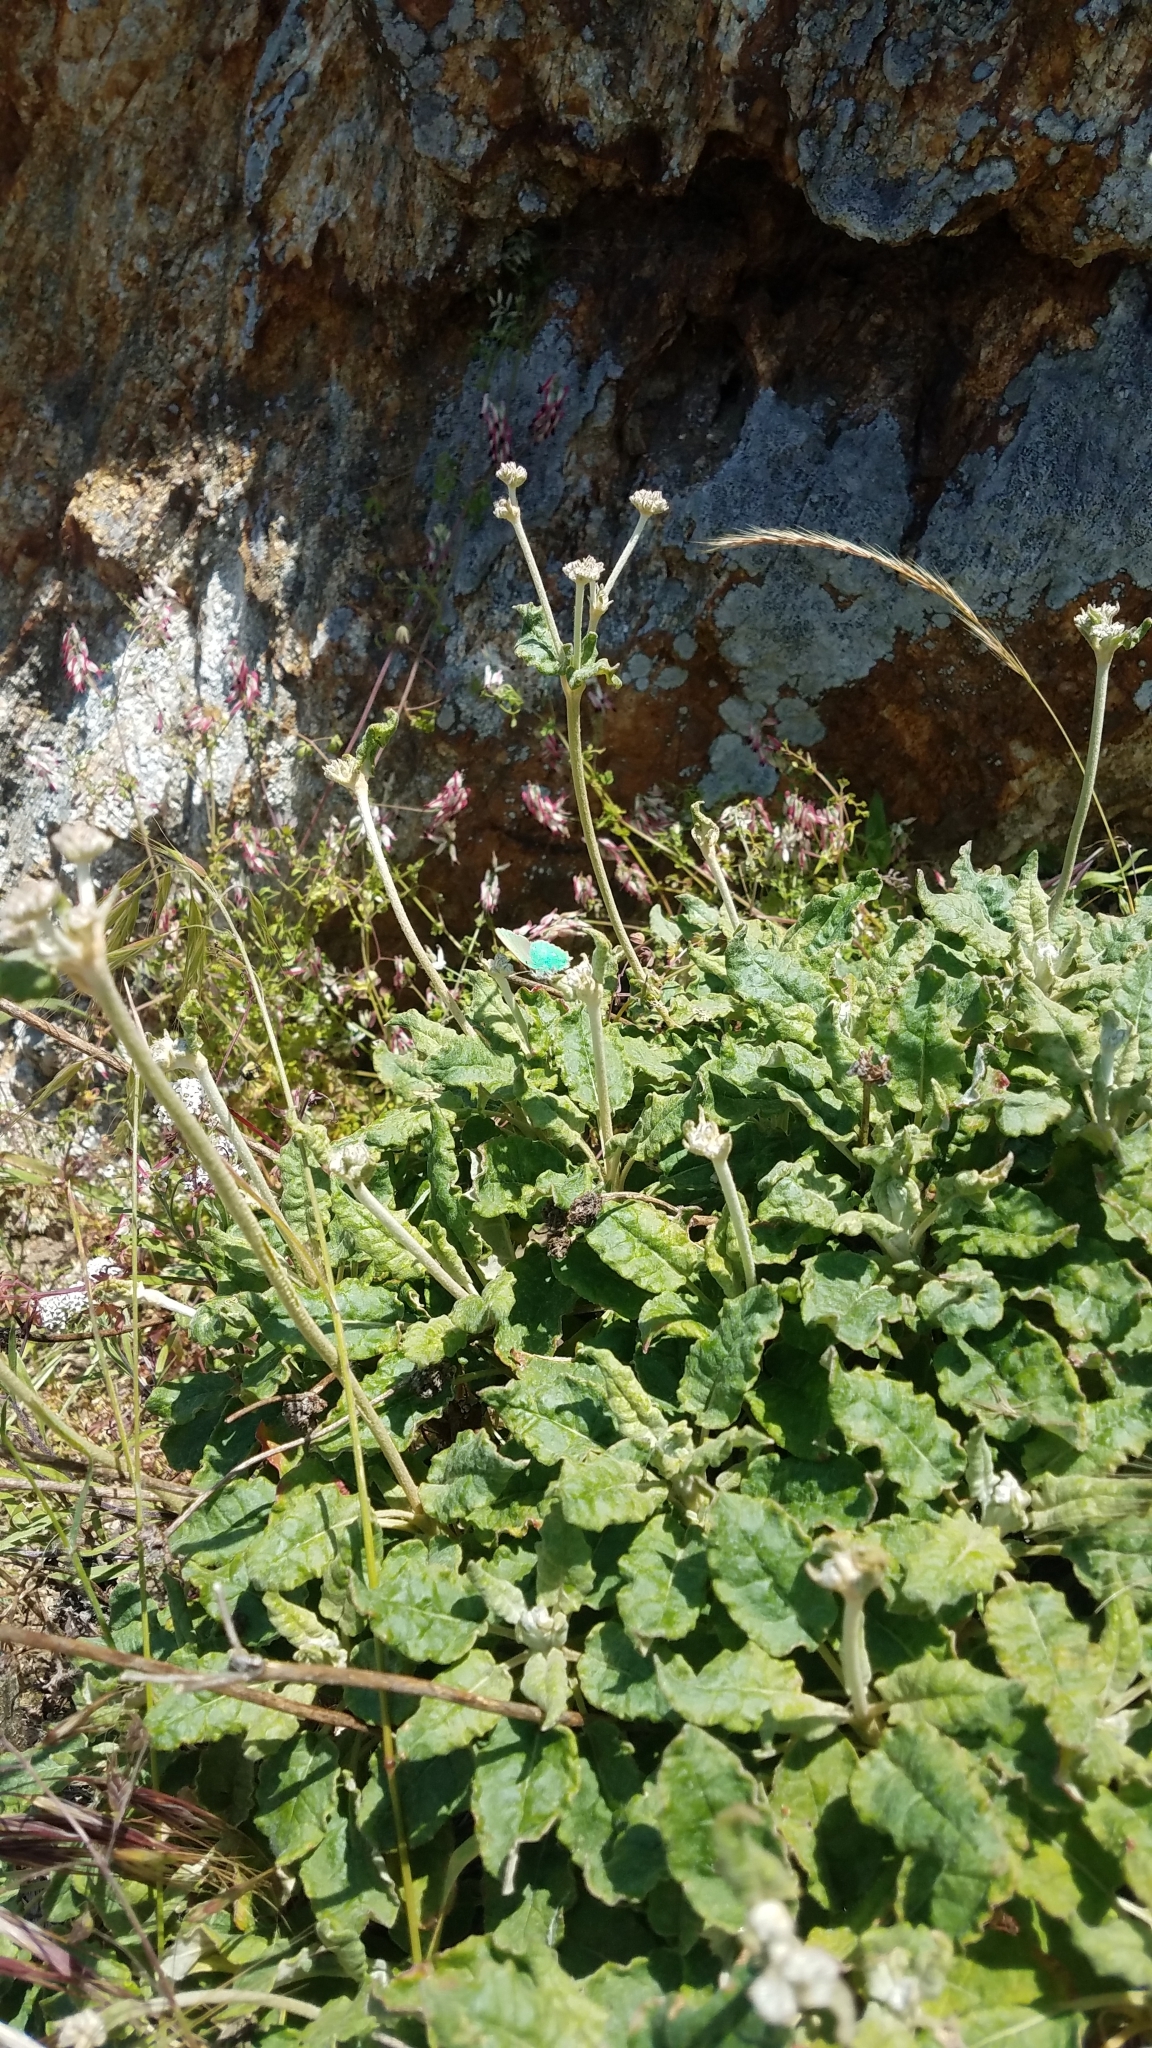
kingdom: Animalia
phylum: Arthropoda
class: Insecta
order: Lepidoptera
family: Lycaenidae
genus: Callophrys
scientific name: Callophrys viridis
